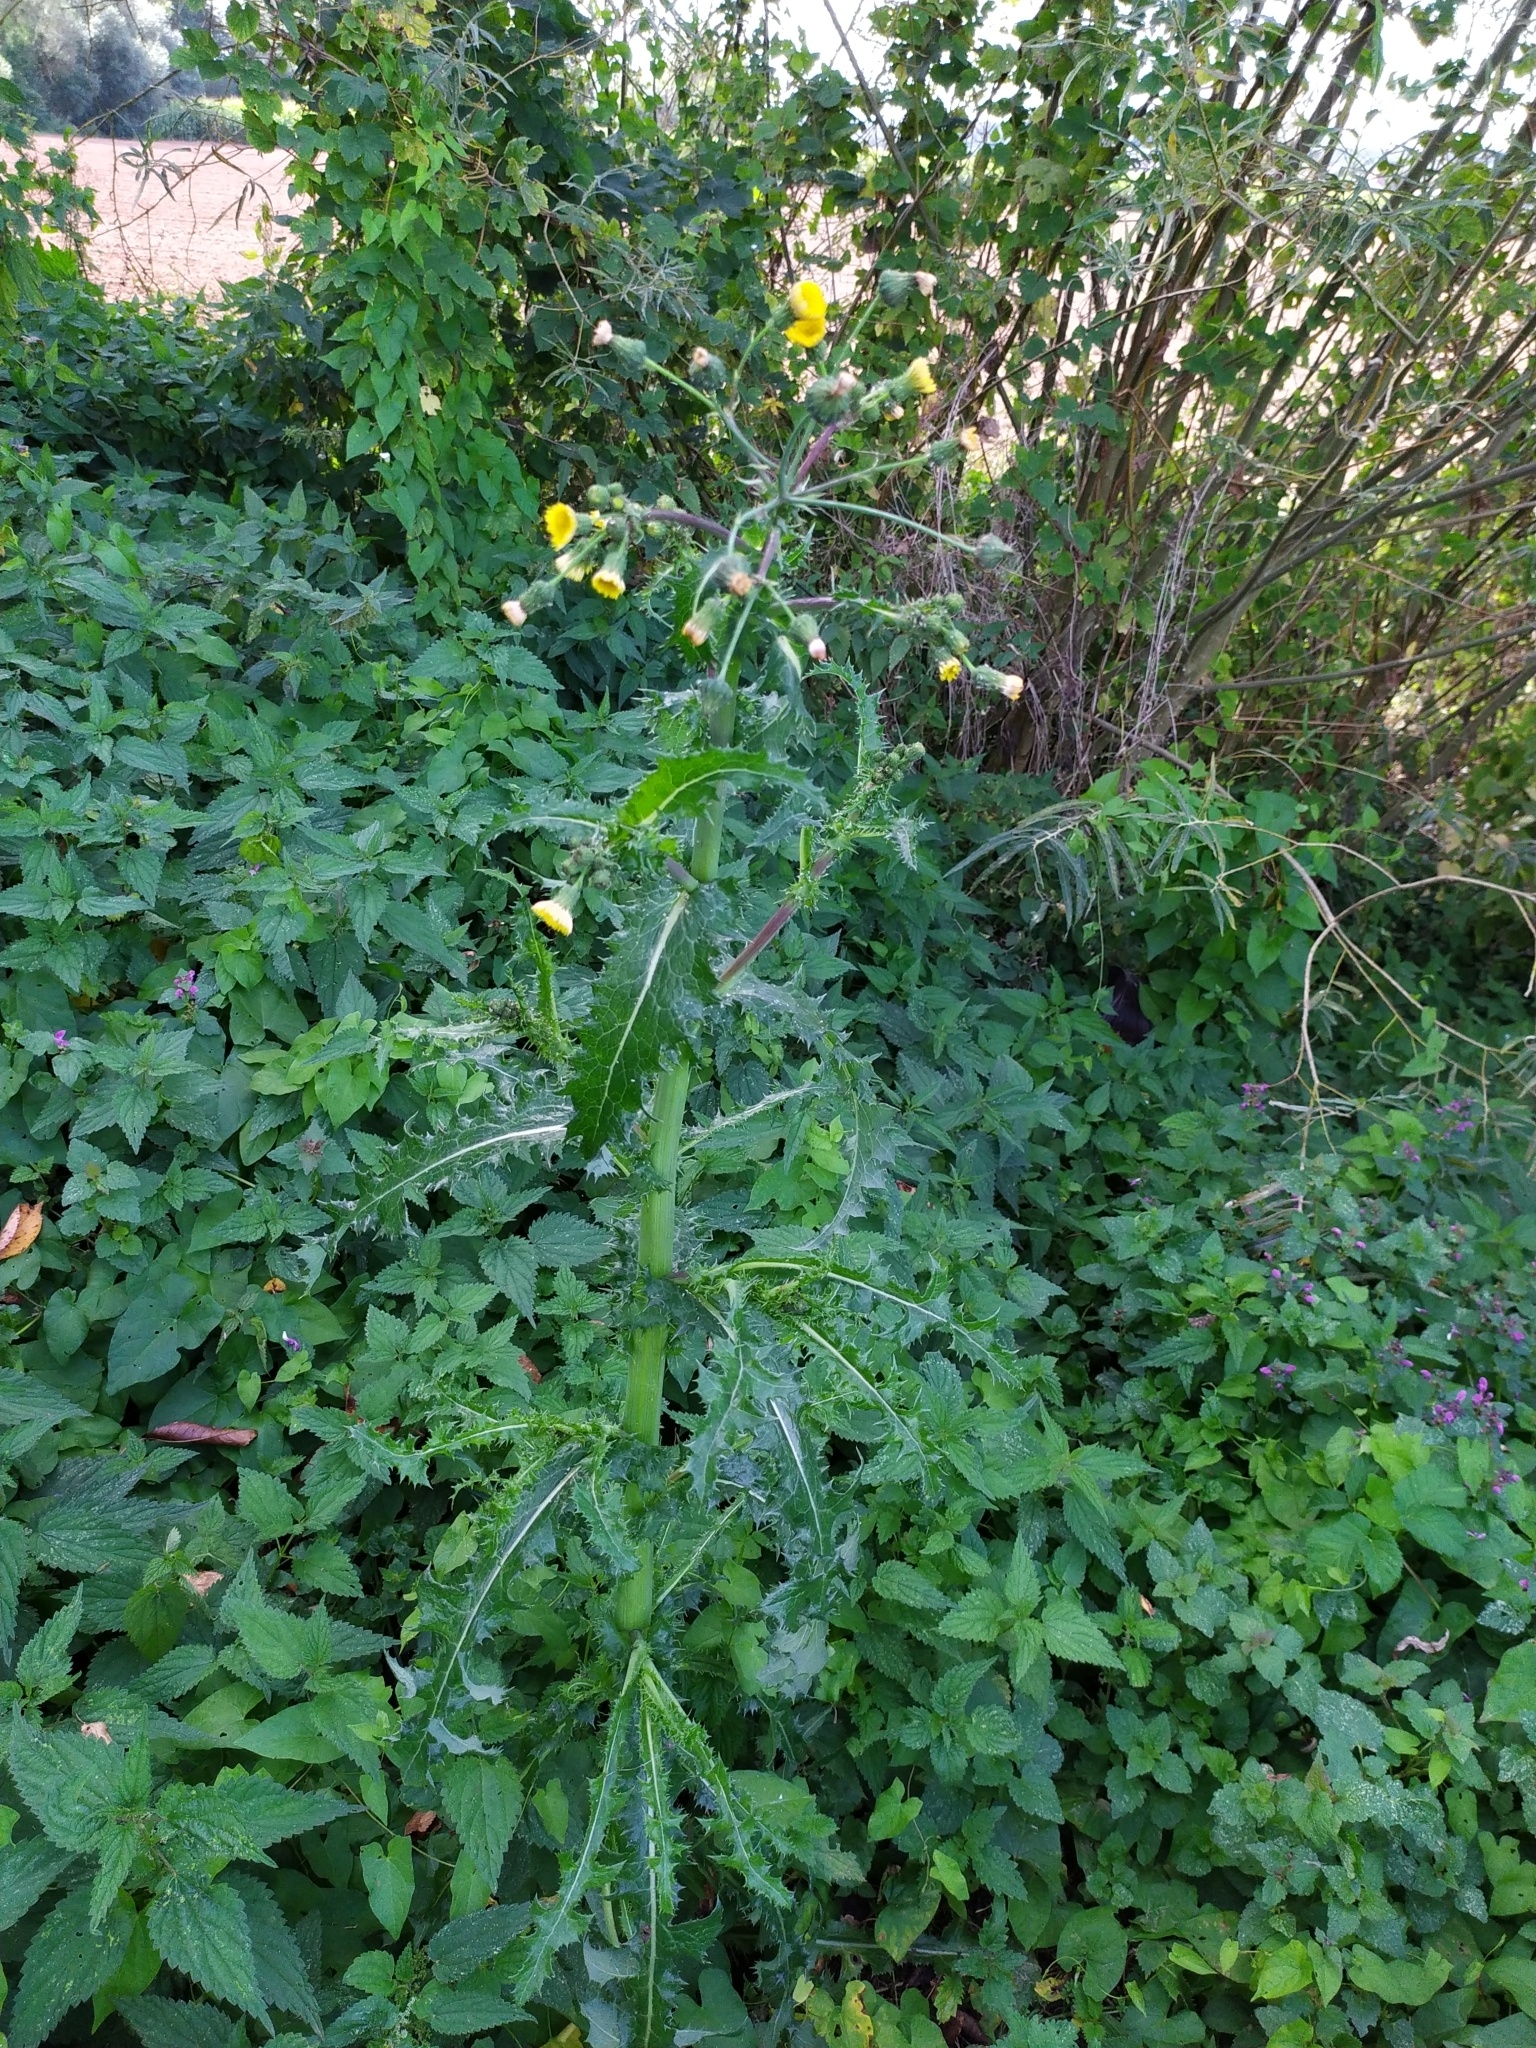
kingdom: Plantae
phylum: Tracheophyta
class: Magnoliopsida
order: Asterales
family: Asteraceae
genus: Sonchus
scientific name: Sonchus asper
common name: Prickly sow-thistle
